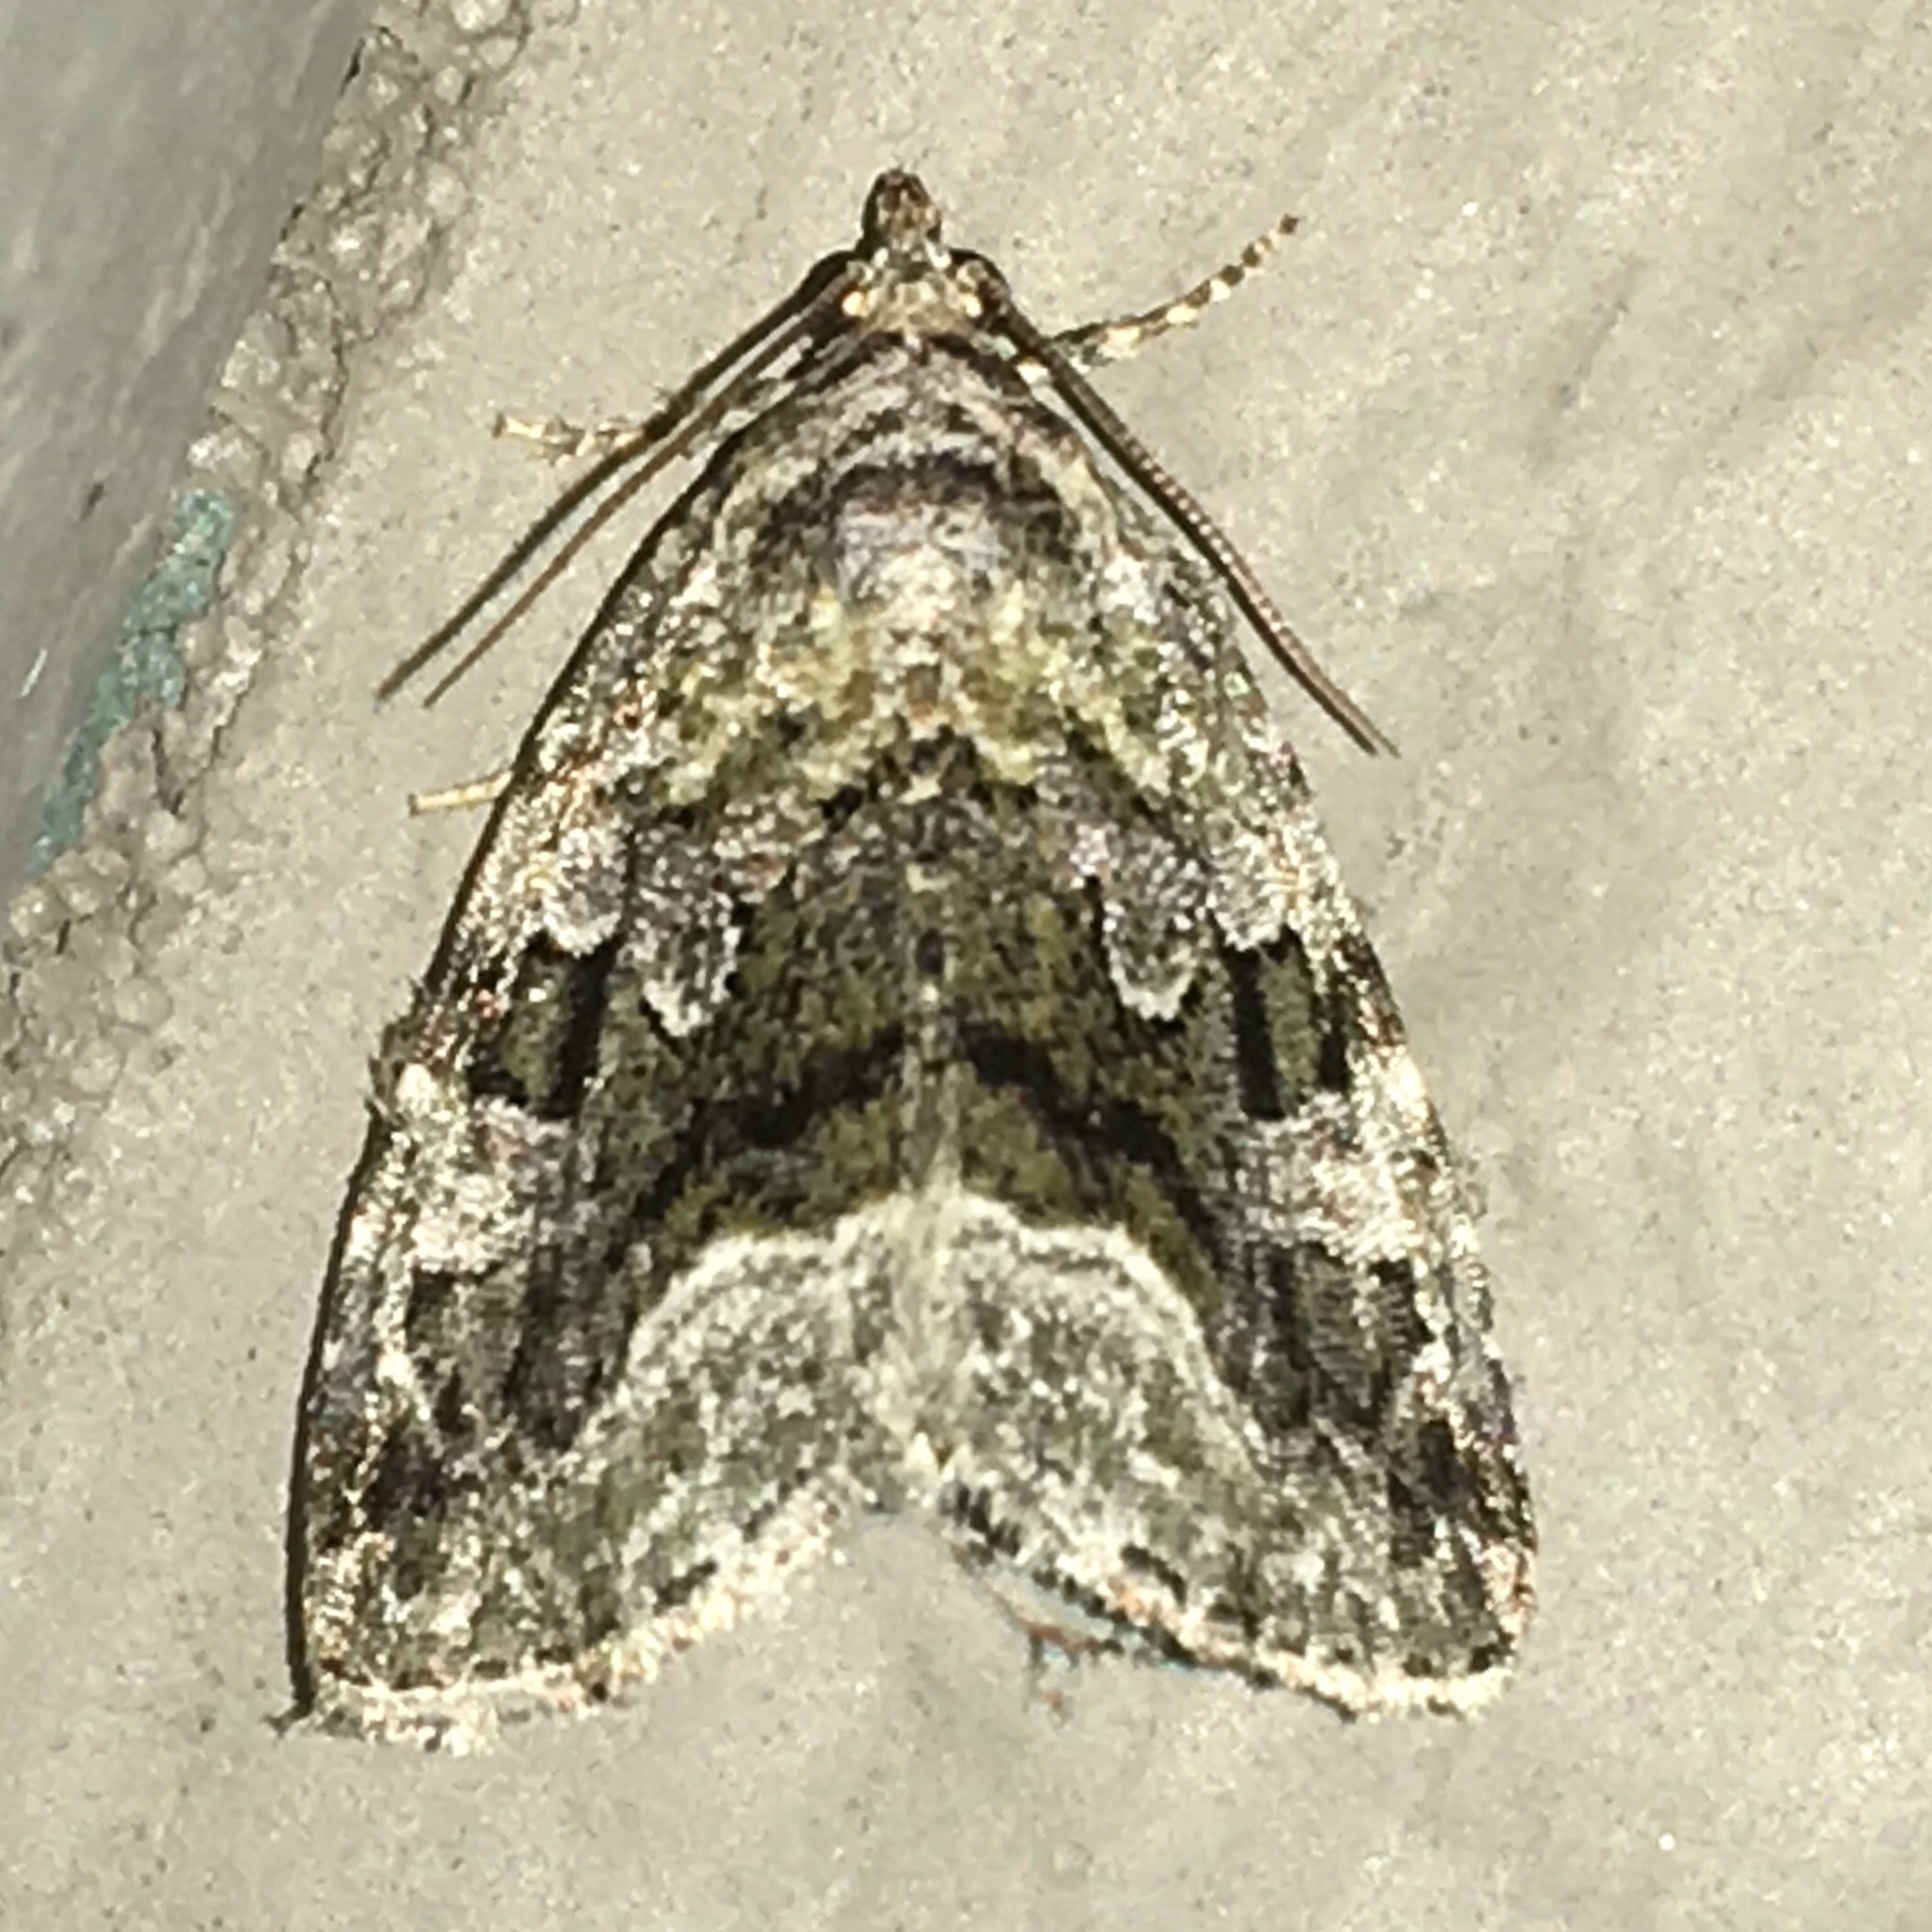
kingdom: Animalia
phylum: Arthropoda
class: Insecta
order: Lepidoptera
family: Noctuidae
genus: Protodeltote
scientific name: Protodeltote muscosula
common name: Large mossy glyph
